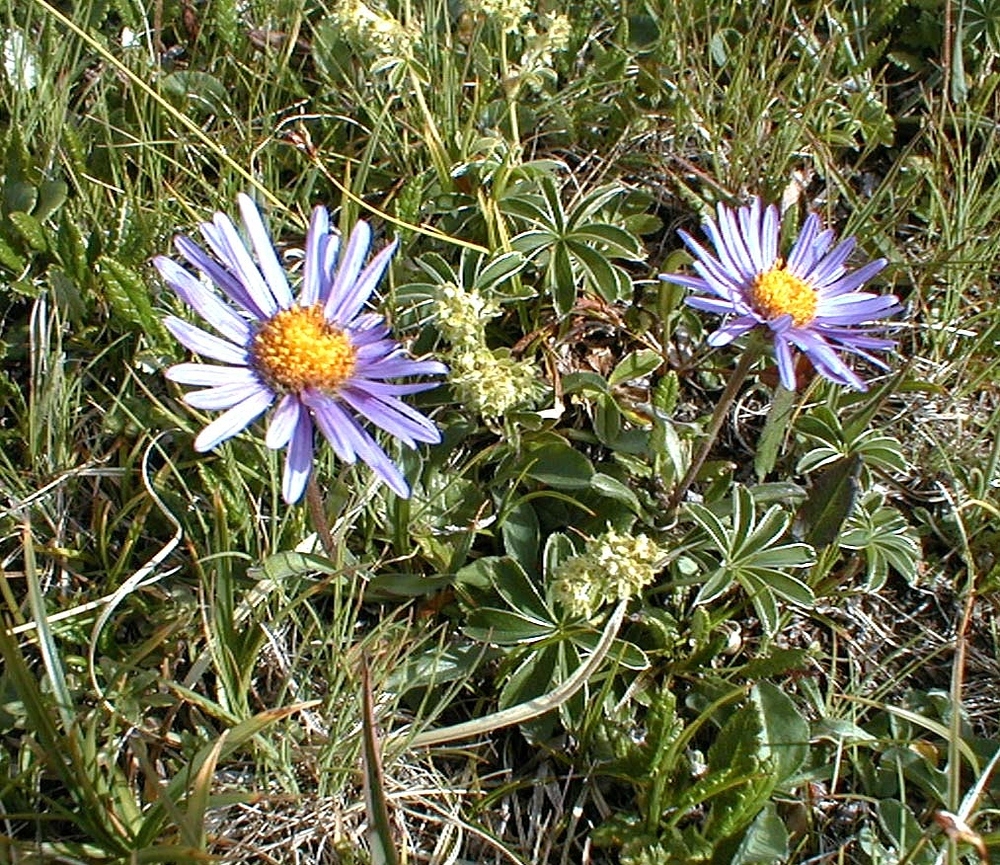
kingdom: Plantae
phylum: Tracheophyta
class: Magnoliopsida
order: Asterales
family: Asteraceae
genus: Aster
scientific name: Aster alpinus
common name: Alpine aster
